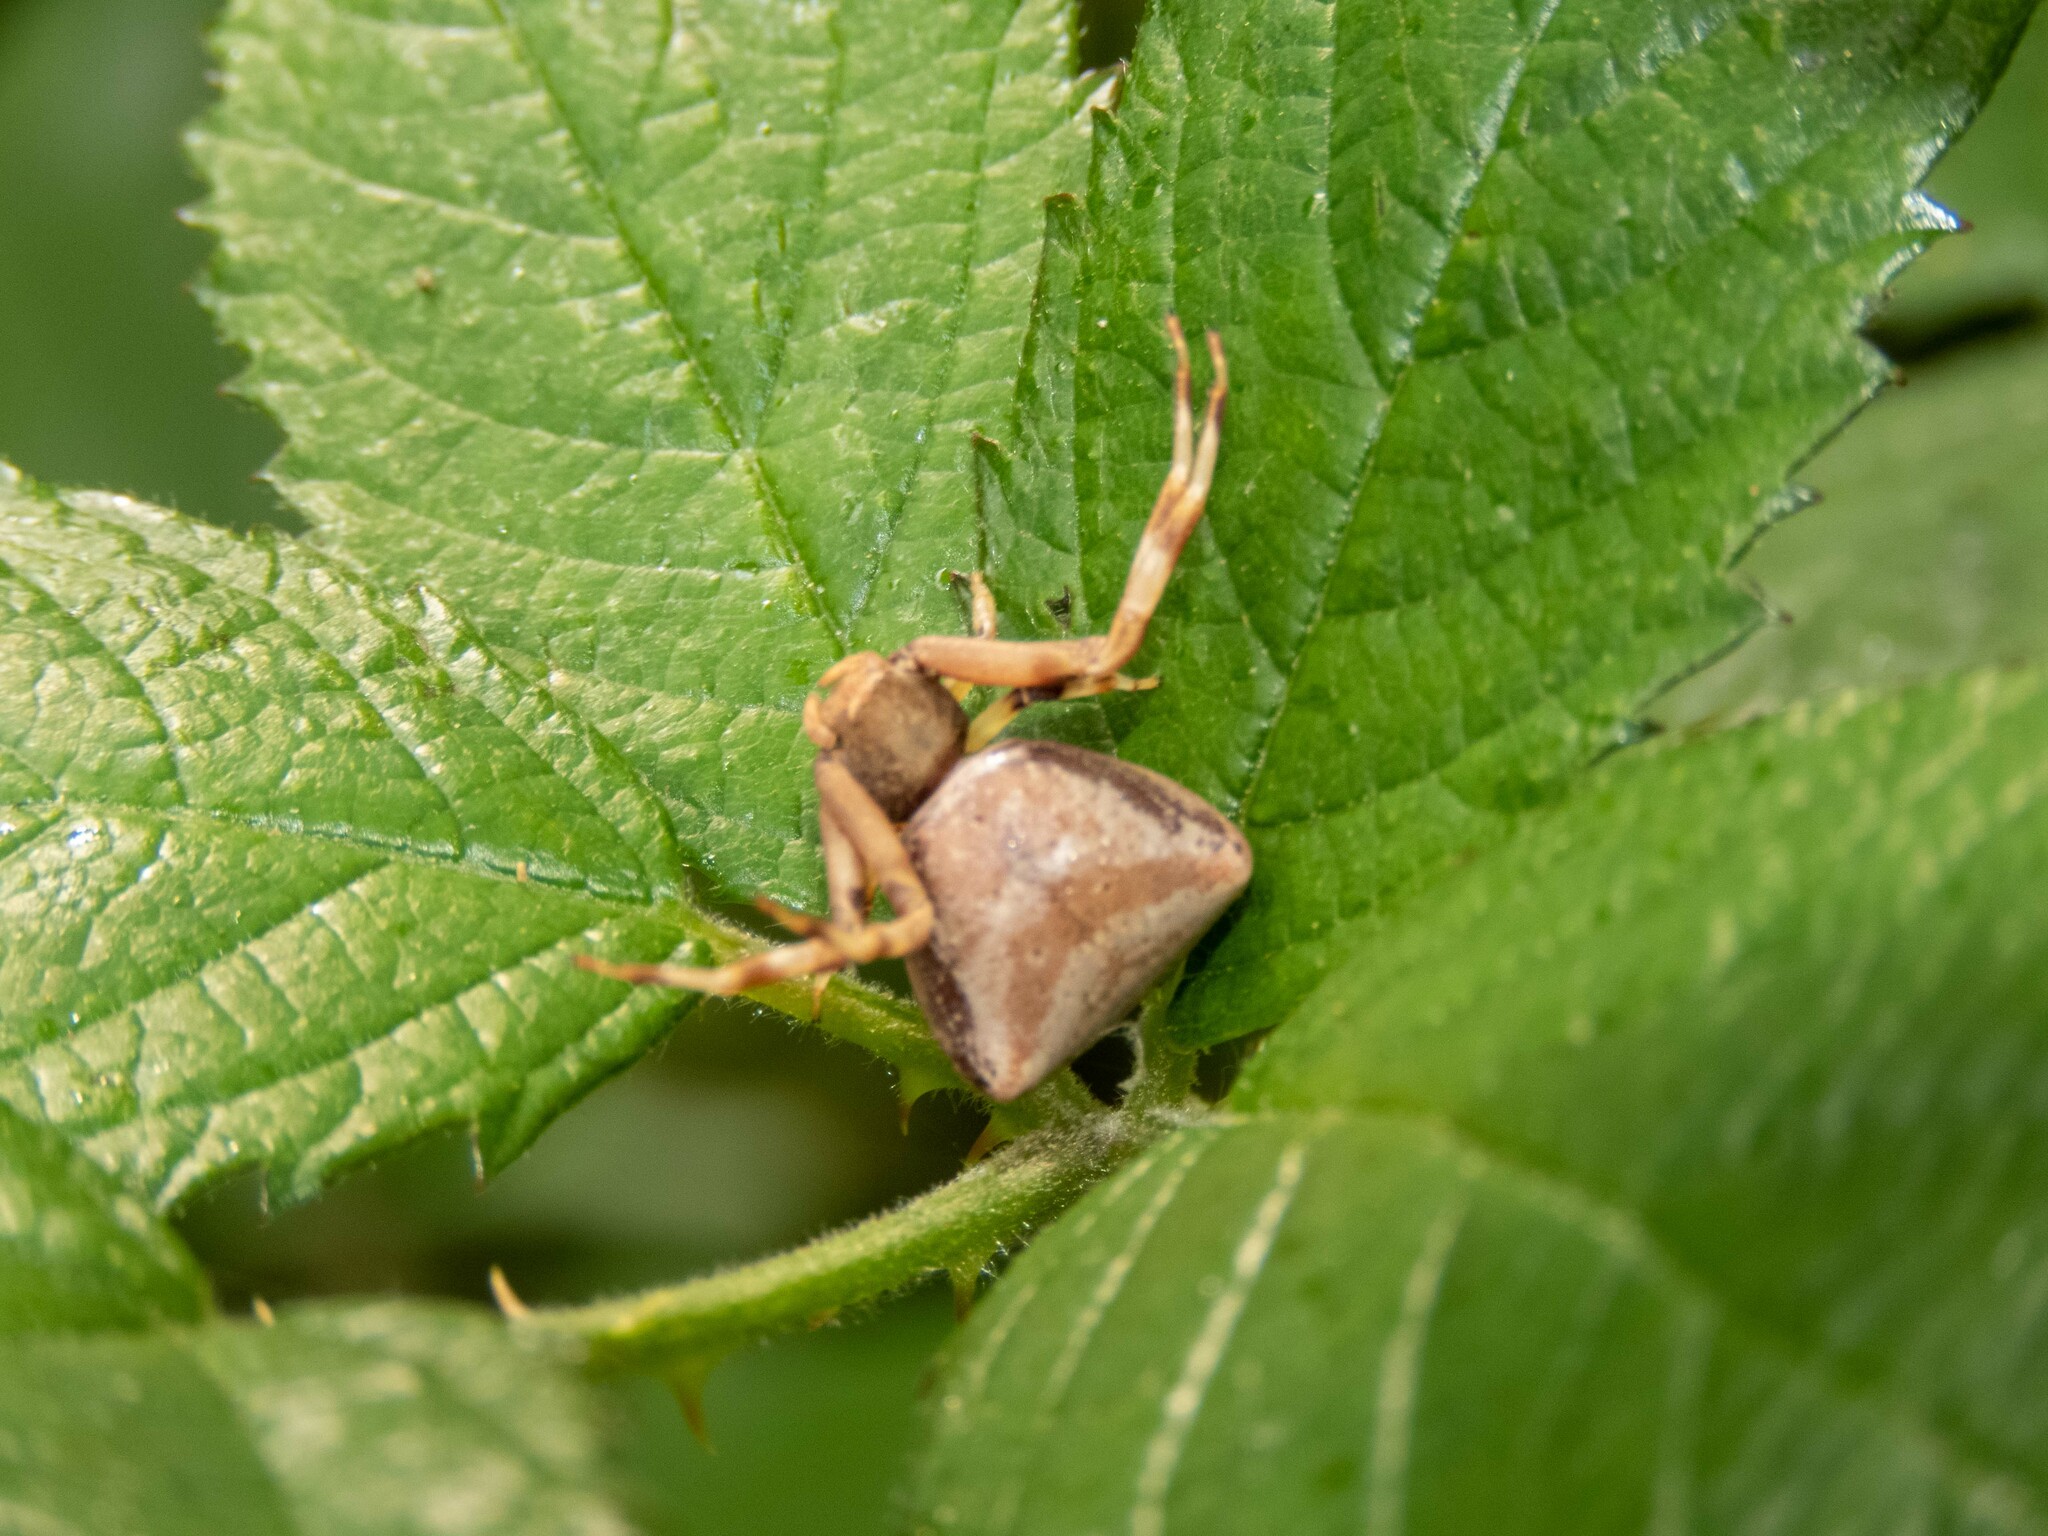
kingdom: Animalia
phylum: Arthropoda
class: Arachnida
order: Araneae
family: Thomisidae
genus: Pistius
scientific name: Pistius truncatus
